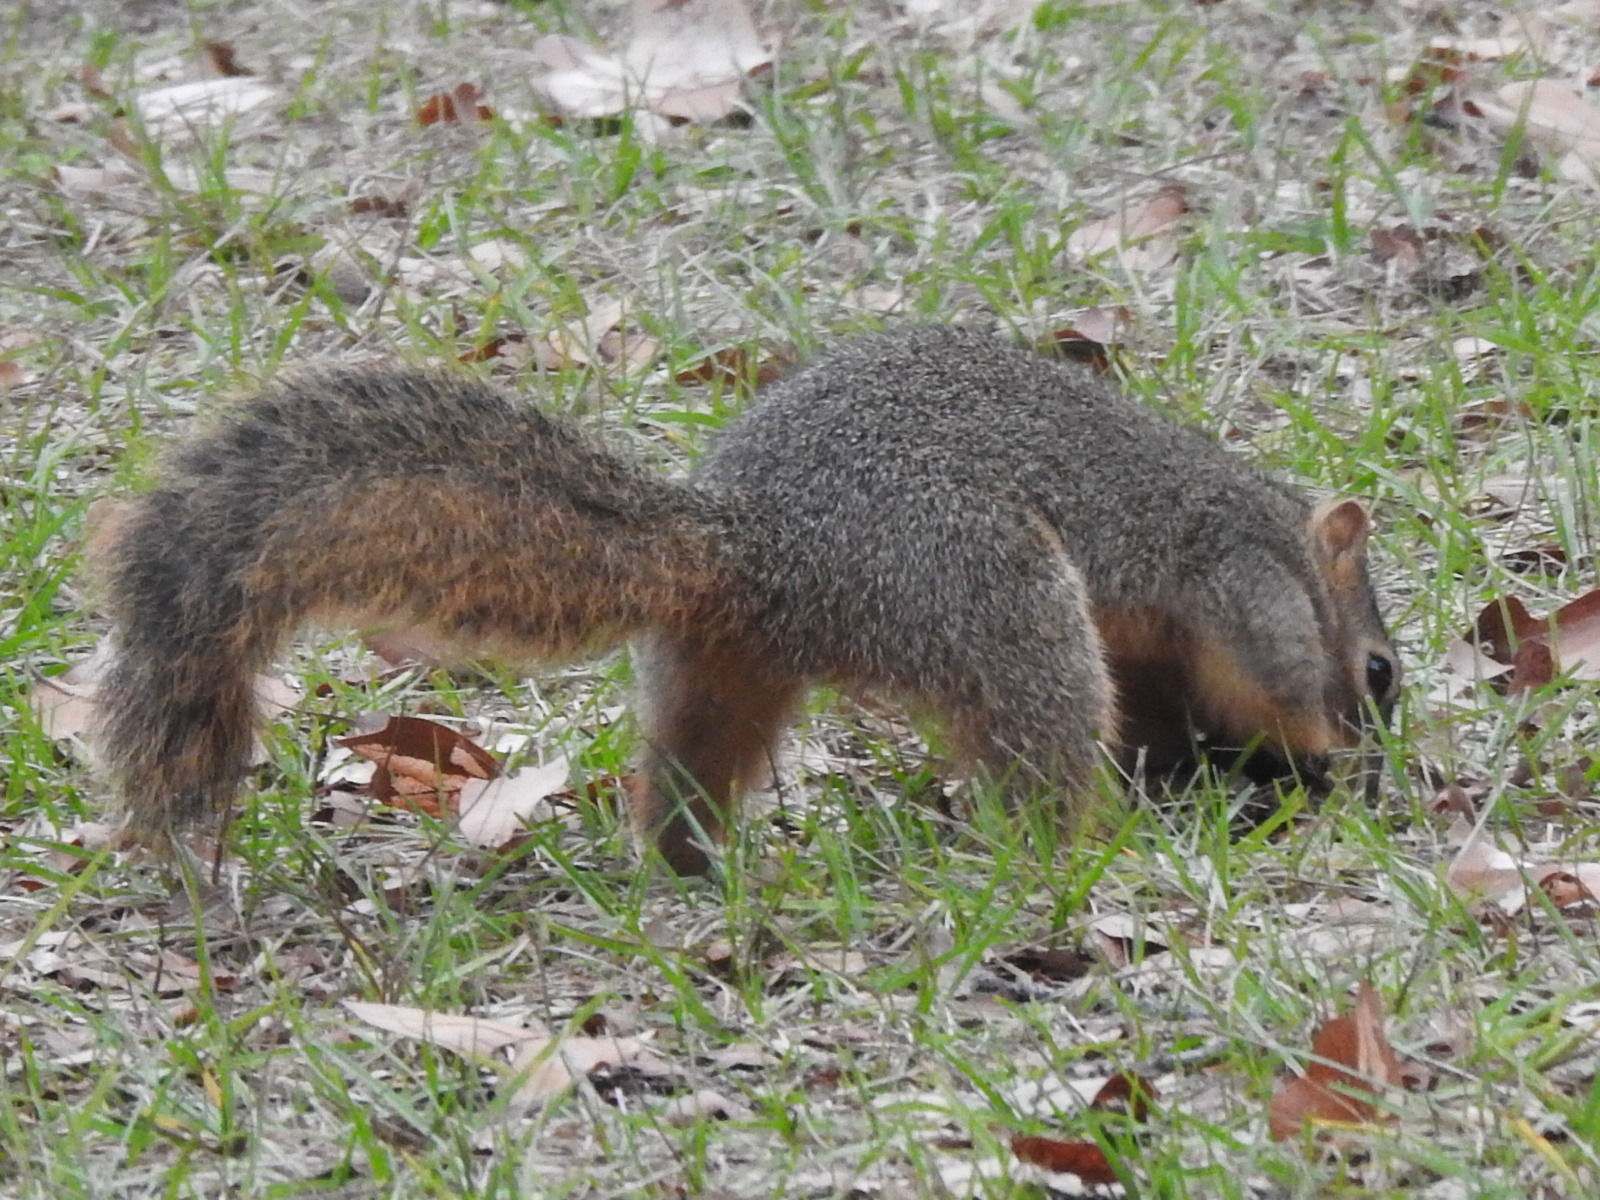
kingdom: Animalia
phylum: Chordata
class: Mammalia
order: Rodentia
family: Sciuridae
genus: Sciurus
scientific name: Sciurus niger
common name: Fox squirrel
